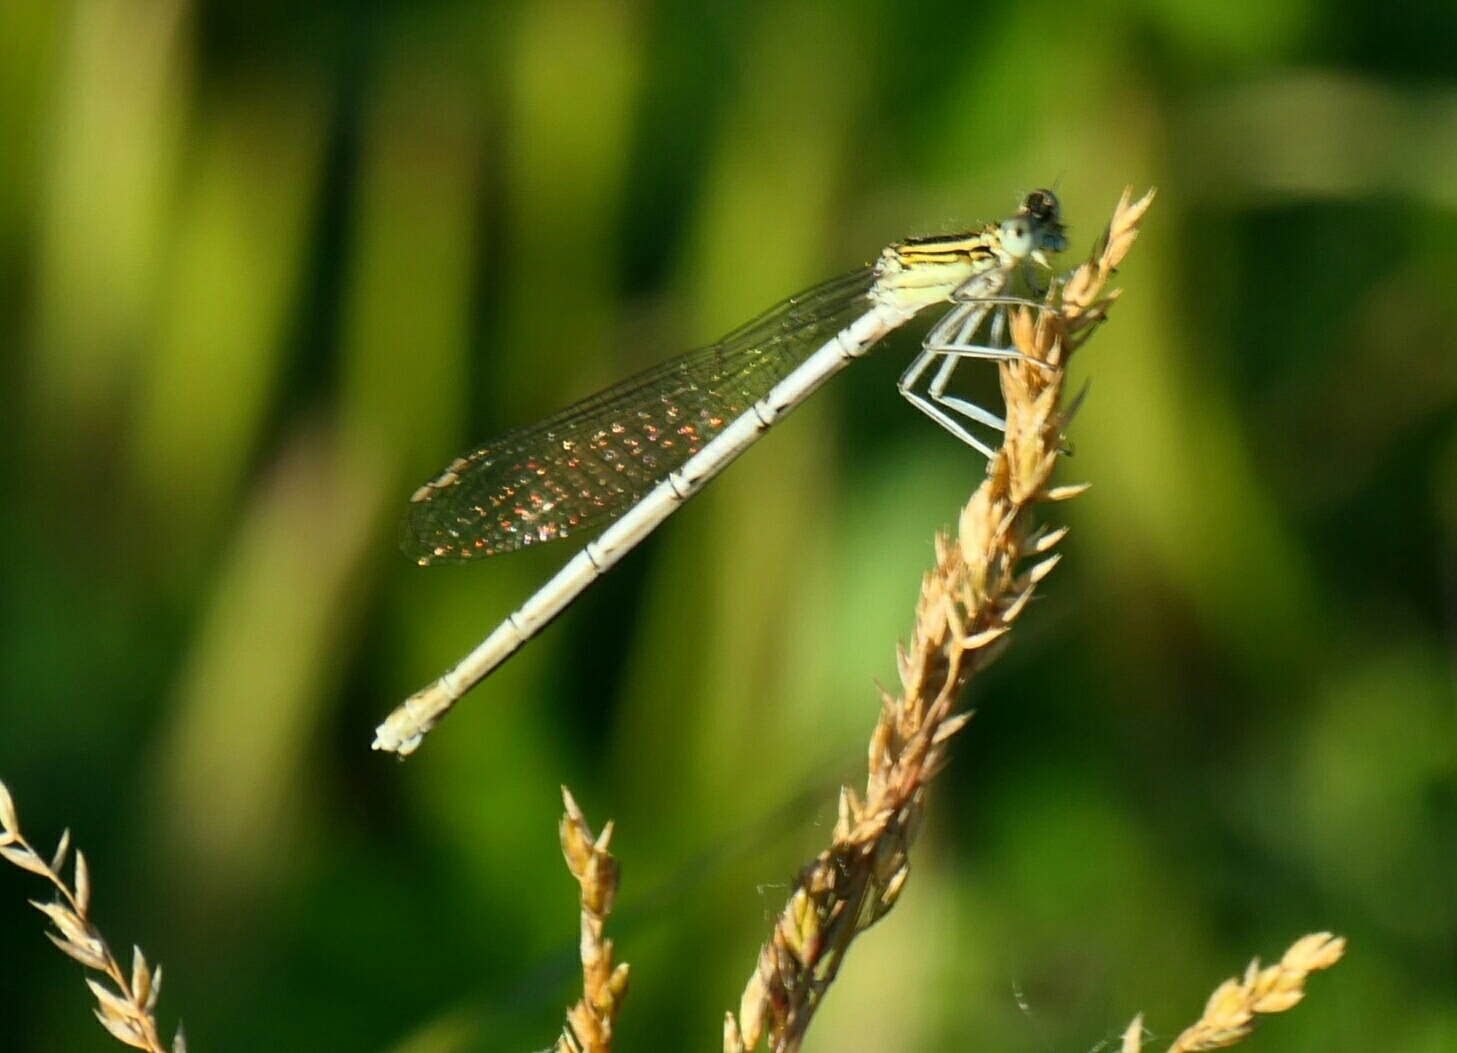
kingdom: Animalia
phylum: Arthropoda
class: Insecta
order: Odonata
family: Platycnemididae
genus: Platycnemis
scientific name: Platycnemis pennipes
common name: White-legged damselfly
